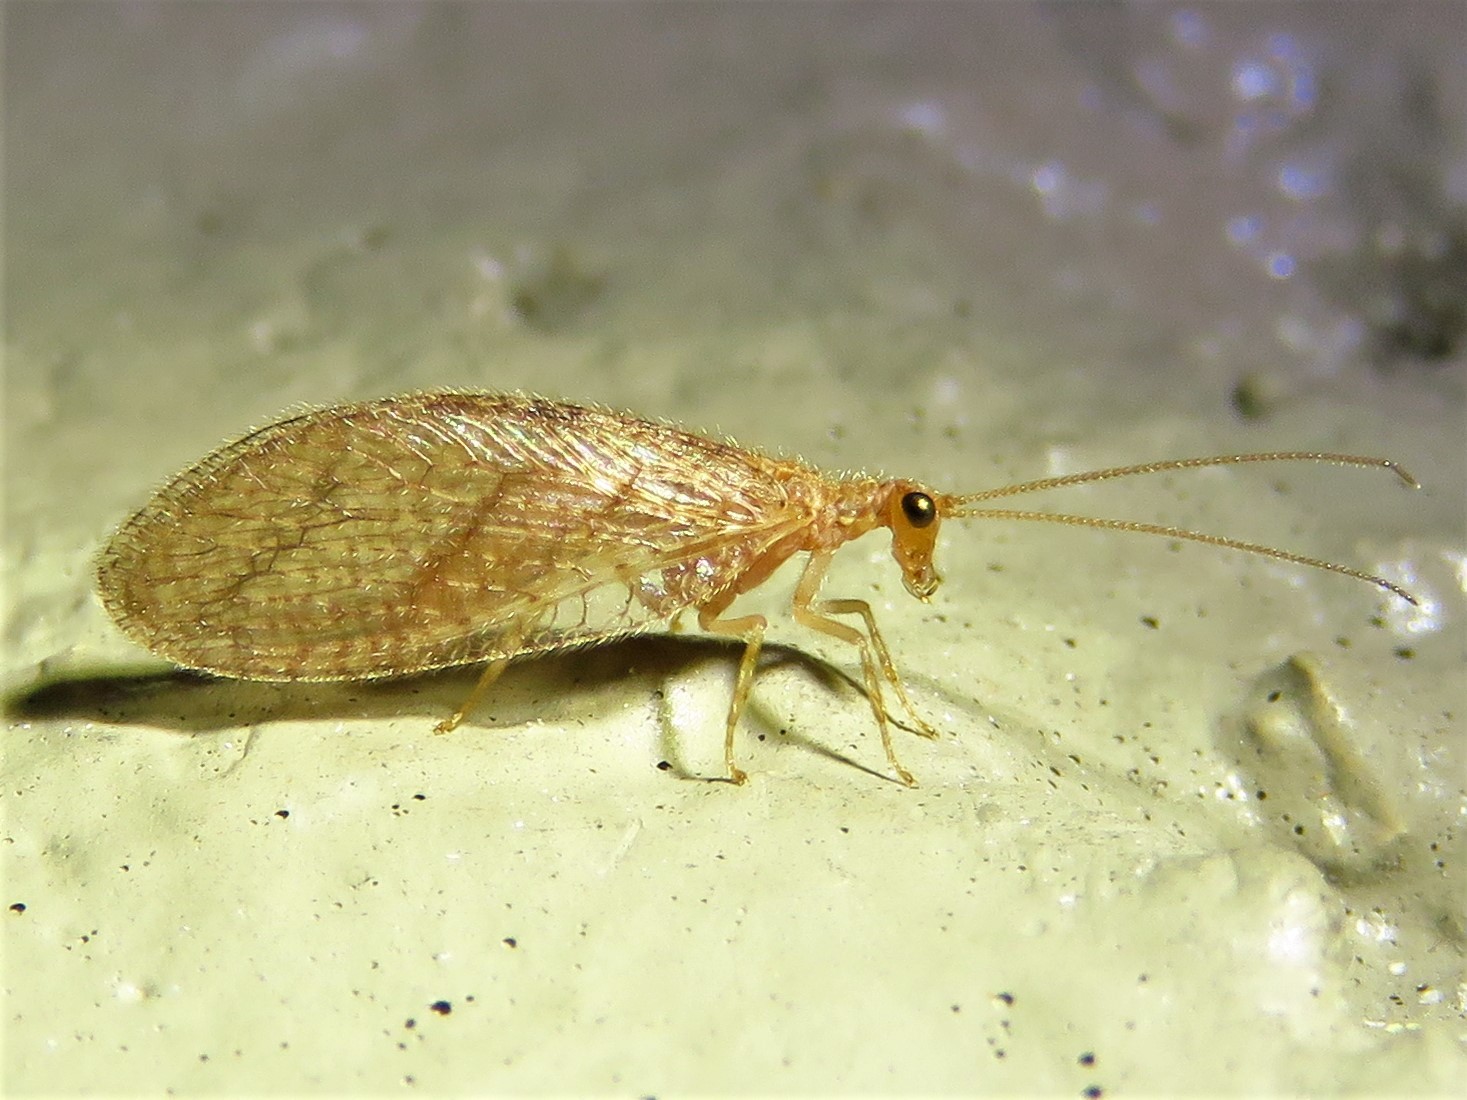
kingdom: Animalia
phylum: Arthropoda
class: Insecta
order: Neuroptera
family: Hemerobiidae
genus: Micromus
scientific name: Micromus posticus
